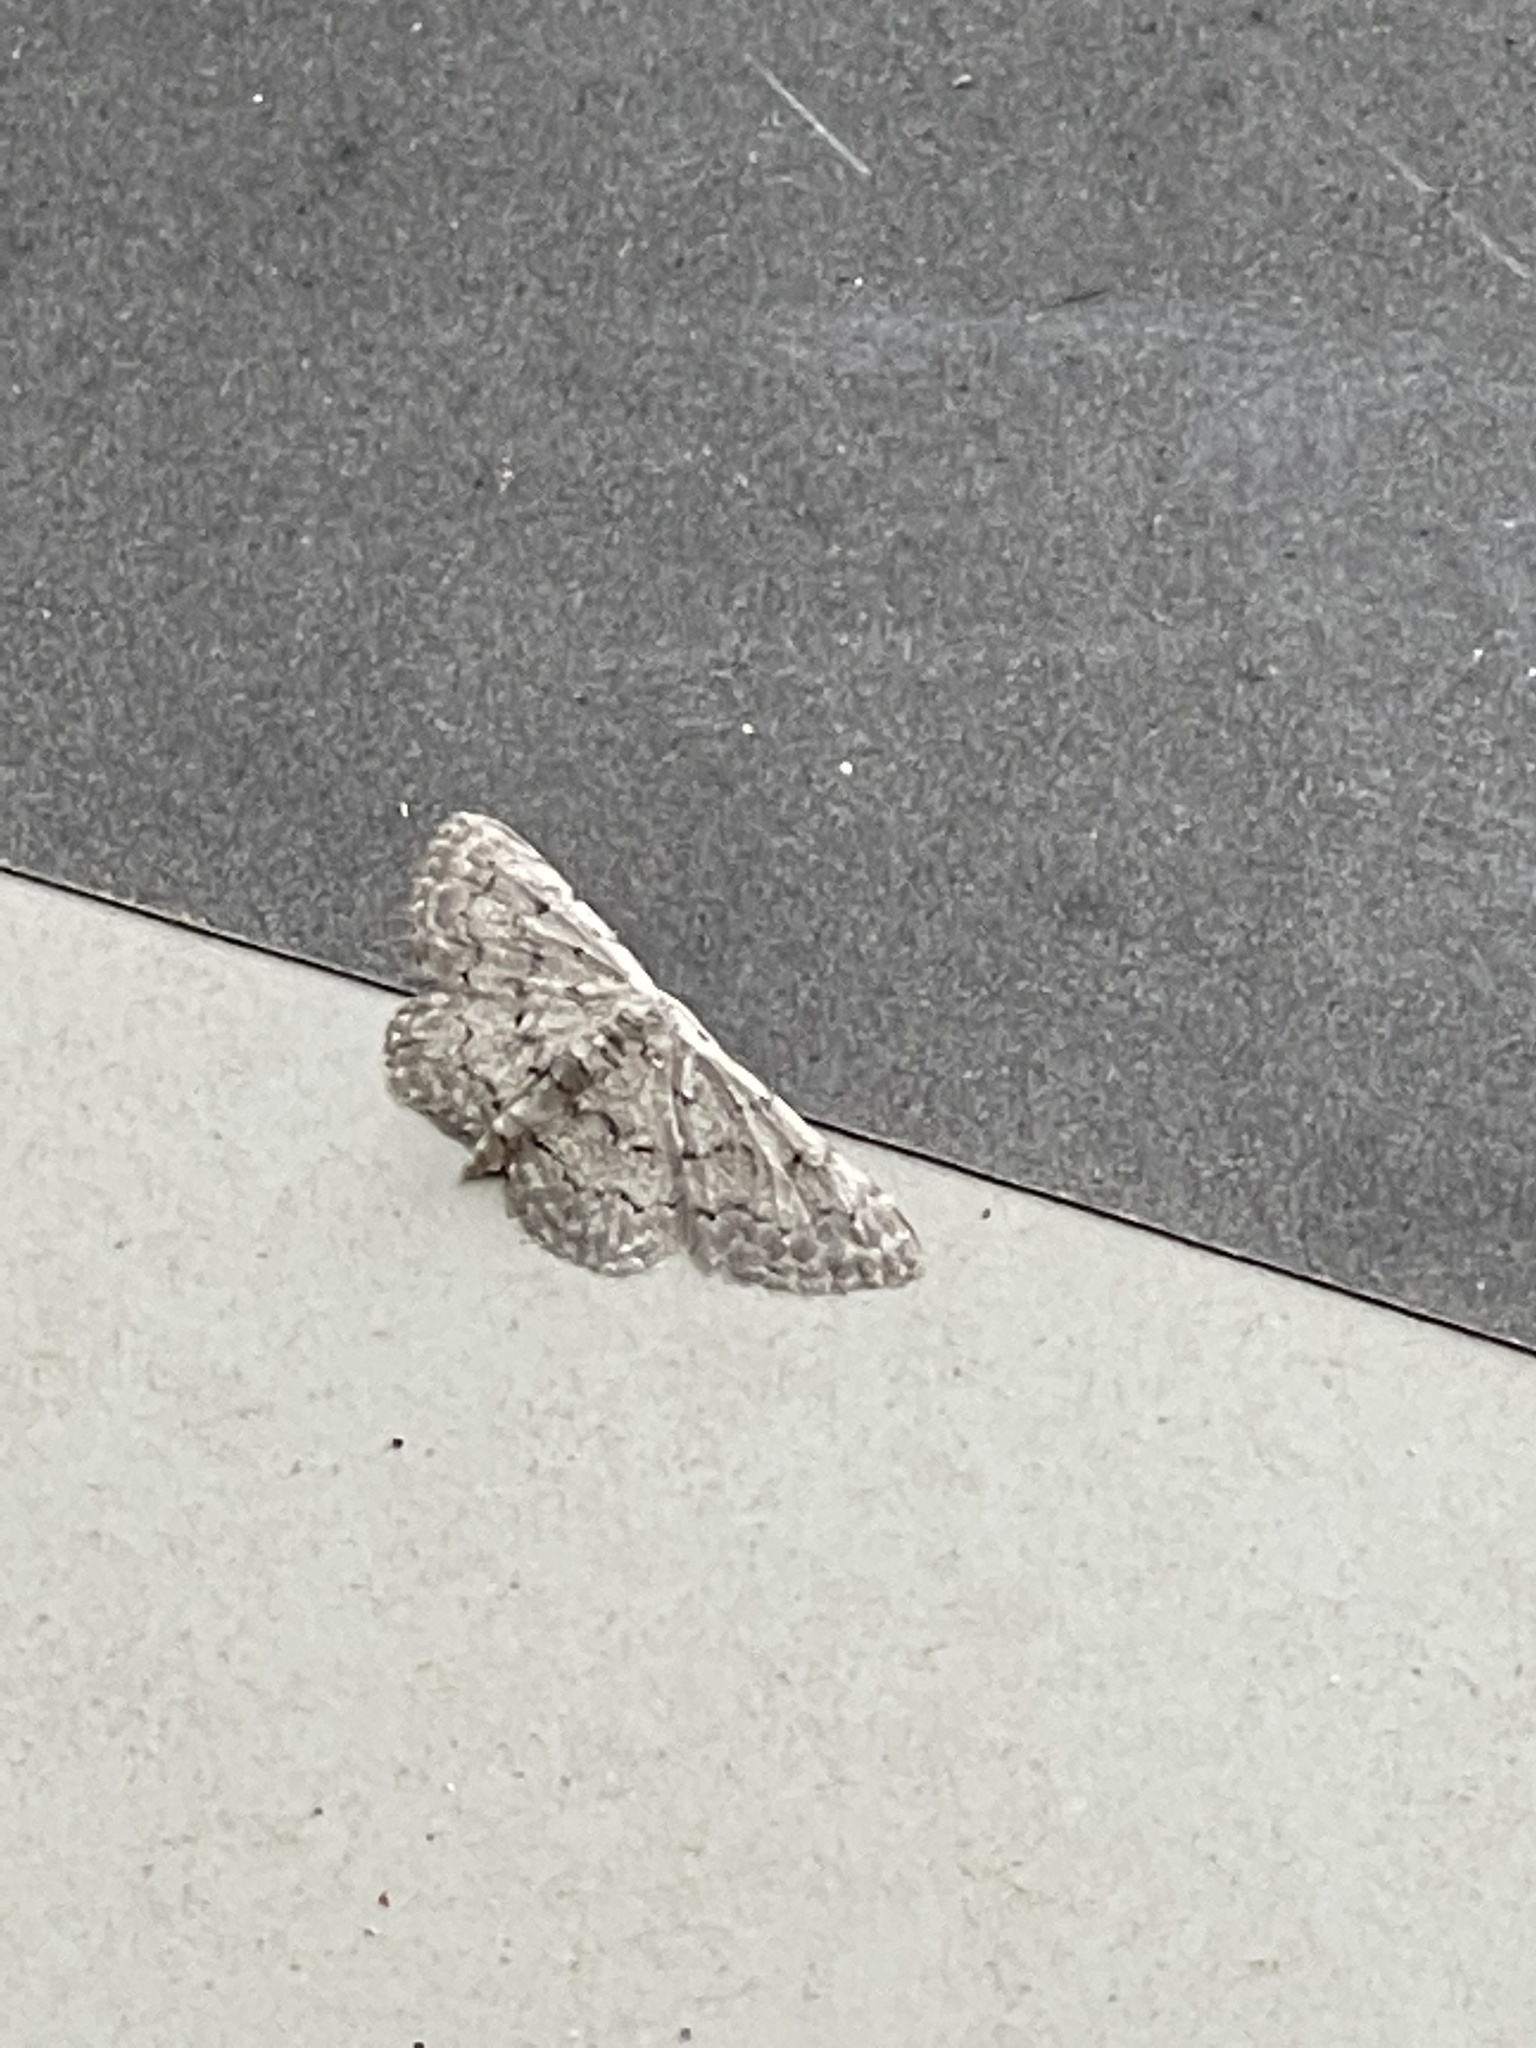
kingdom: Animalia
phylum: Arthropoda
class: Insecta
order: Lepidoptera
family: Geometridae
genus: Idaea
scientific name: Idaea violacearia
